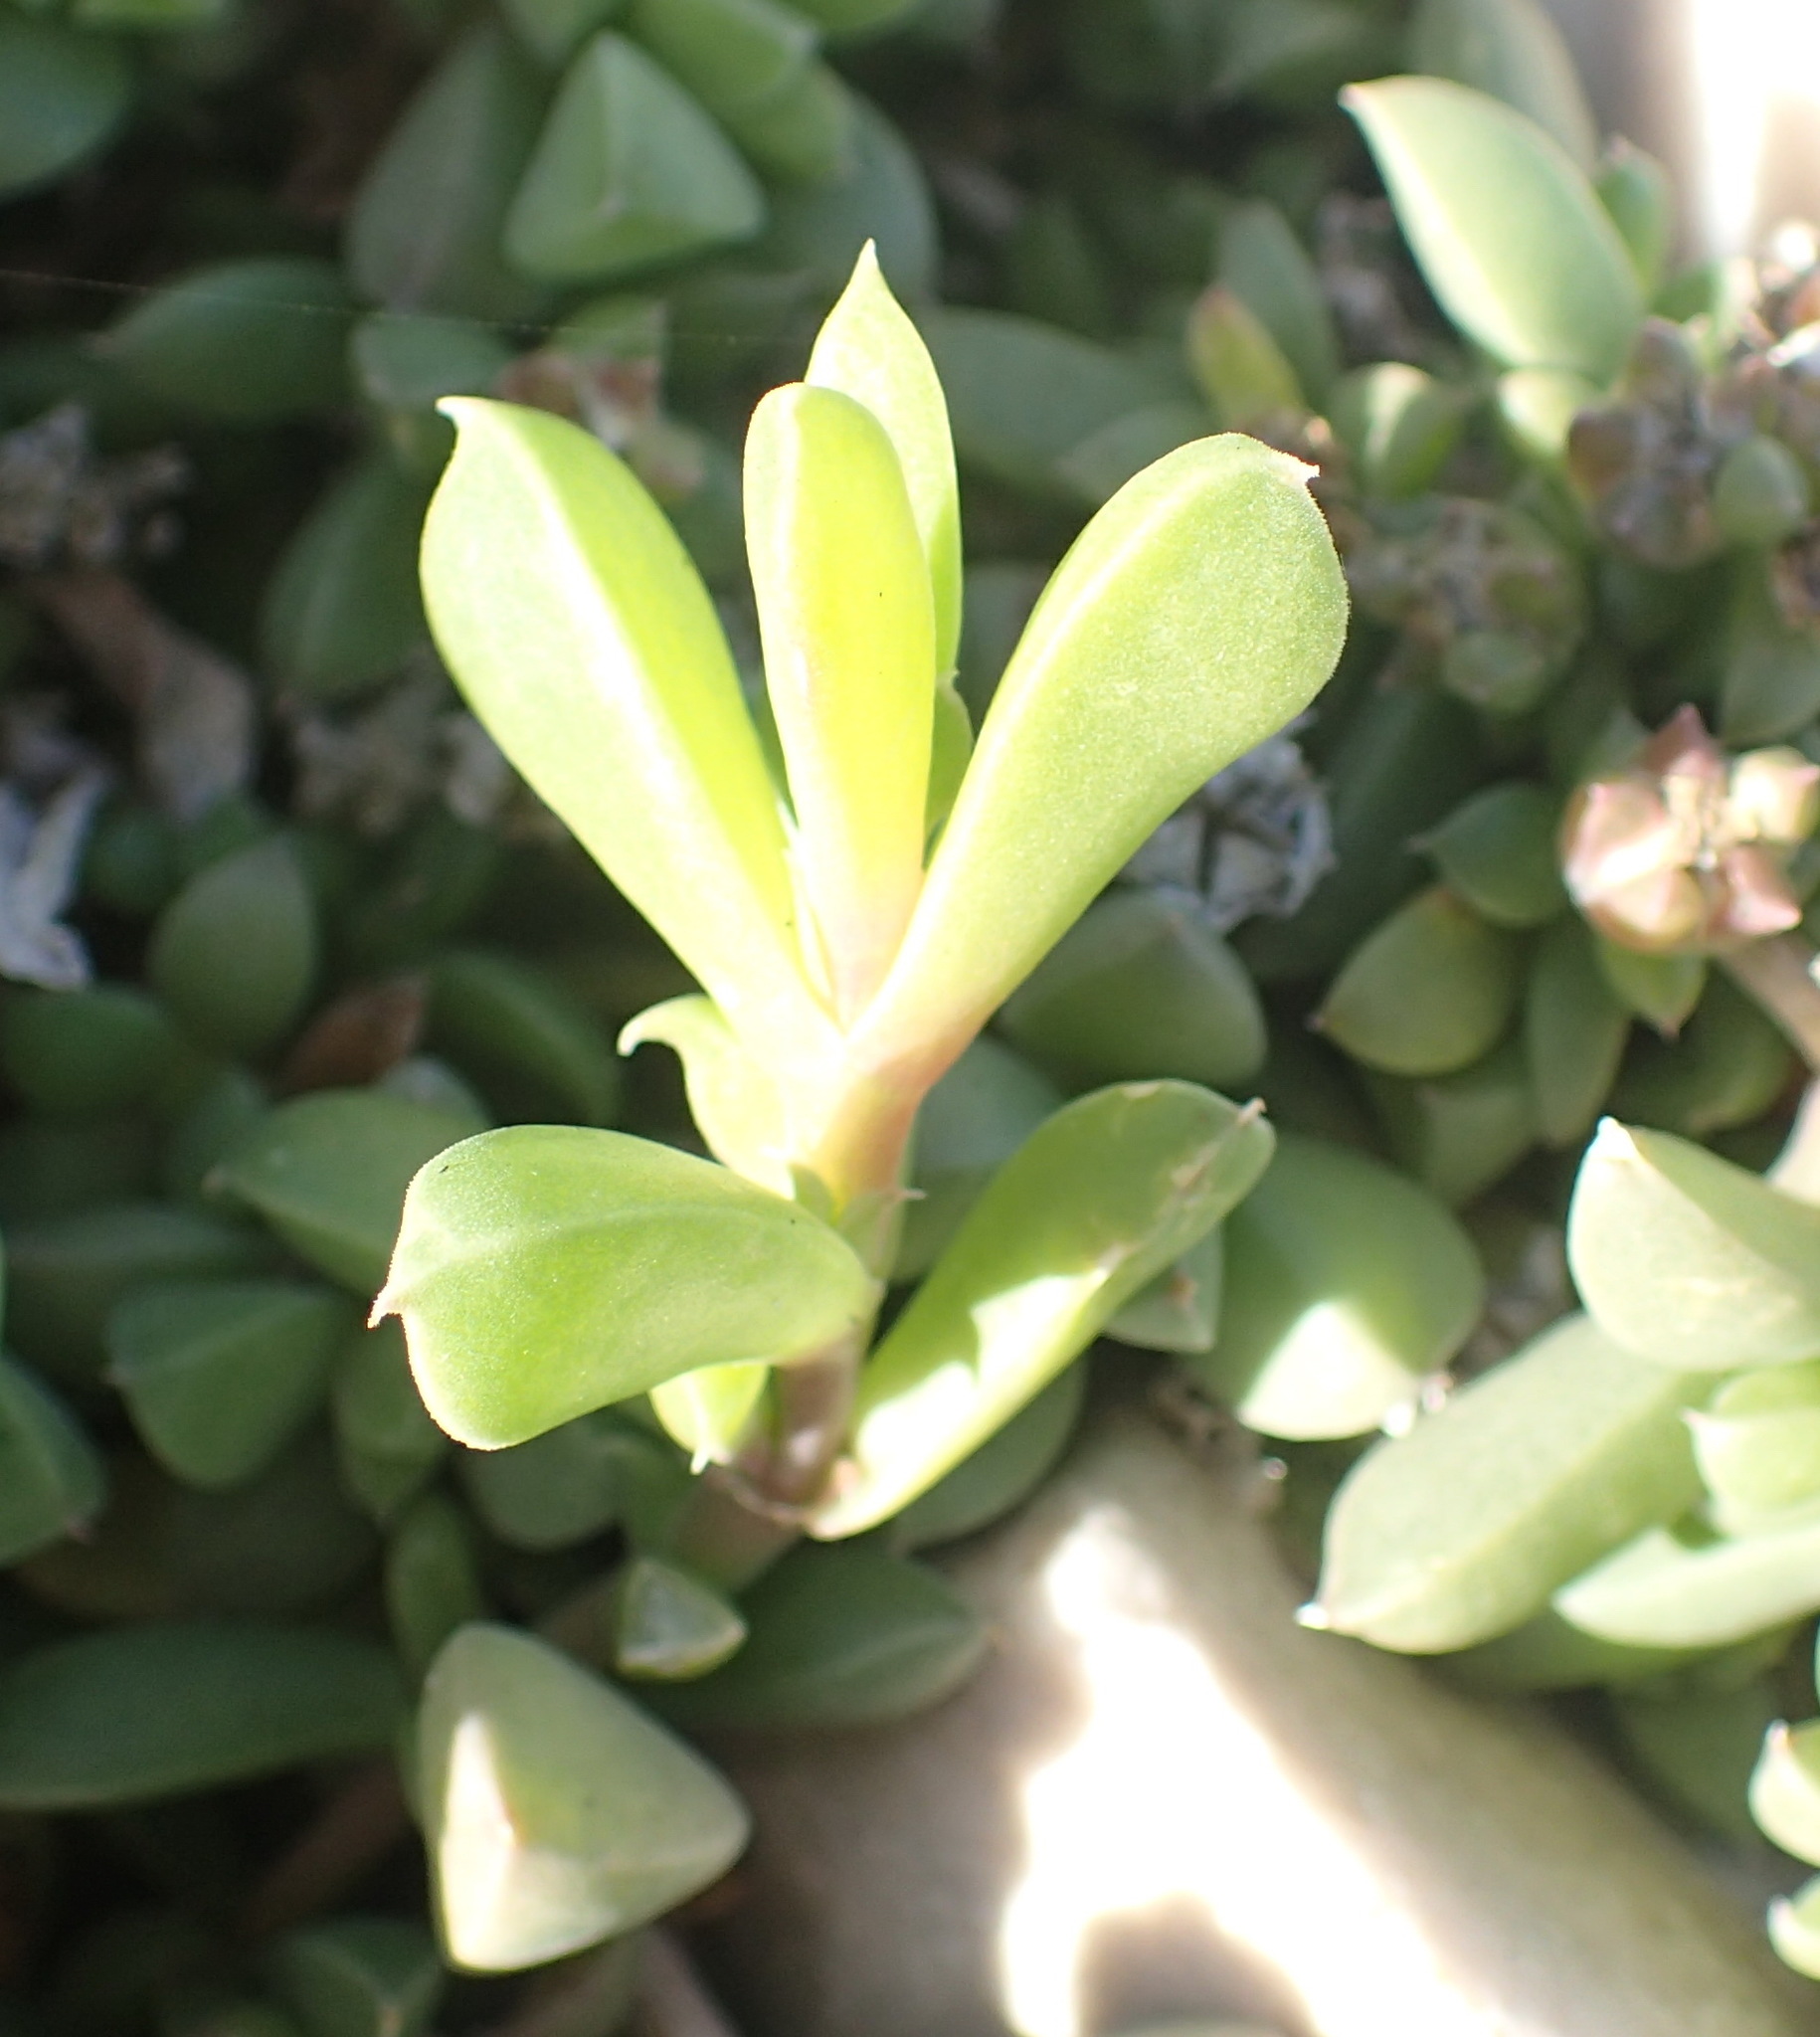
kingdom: Plantae
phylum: Tracheophyta
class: Magnoliopsida
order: Caryophyllales
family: Aizoaceae
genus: Delosperma
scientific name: Delosperma litorale
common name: Seaside delosperma
